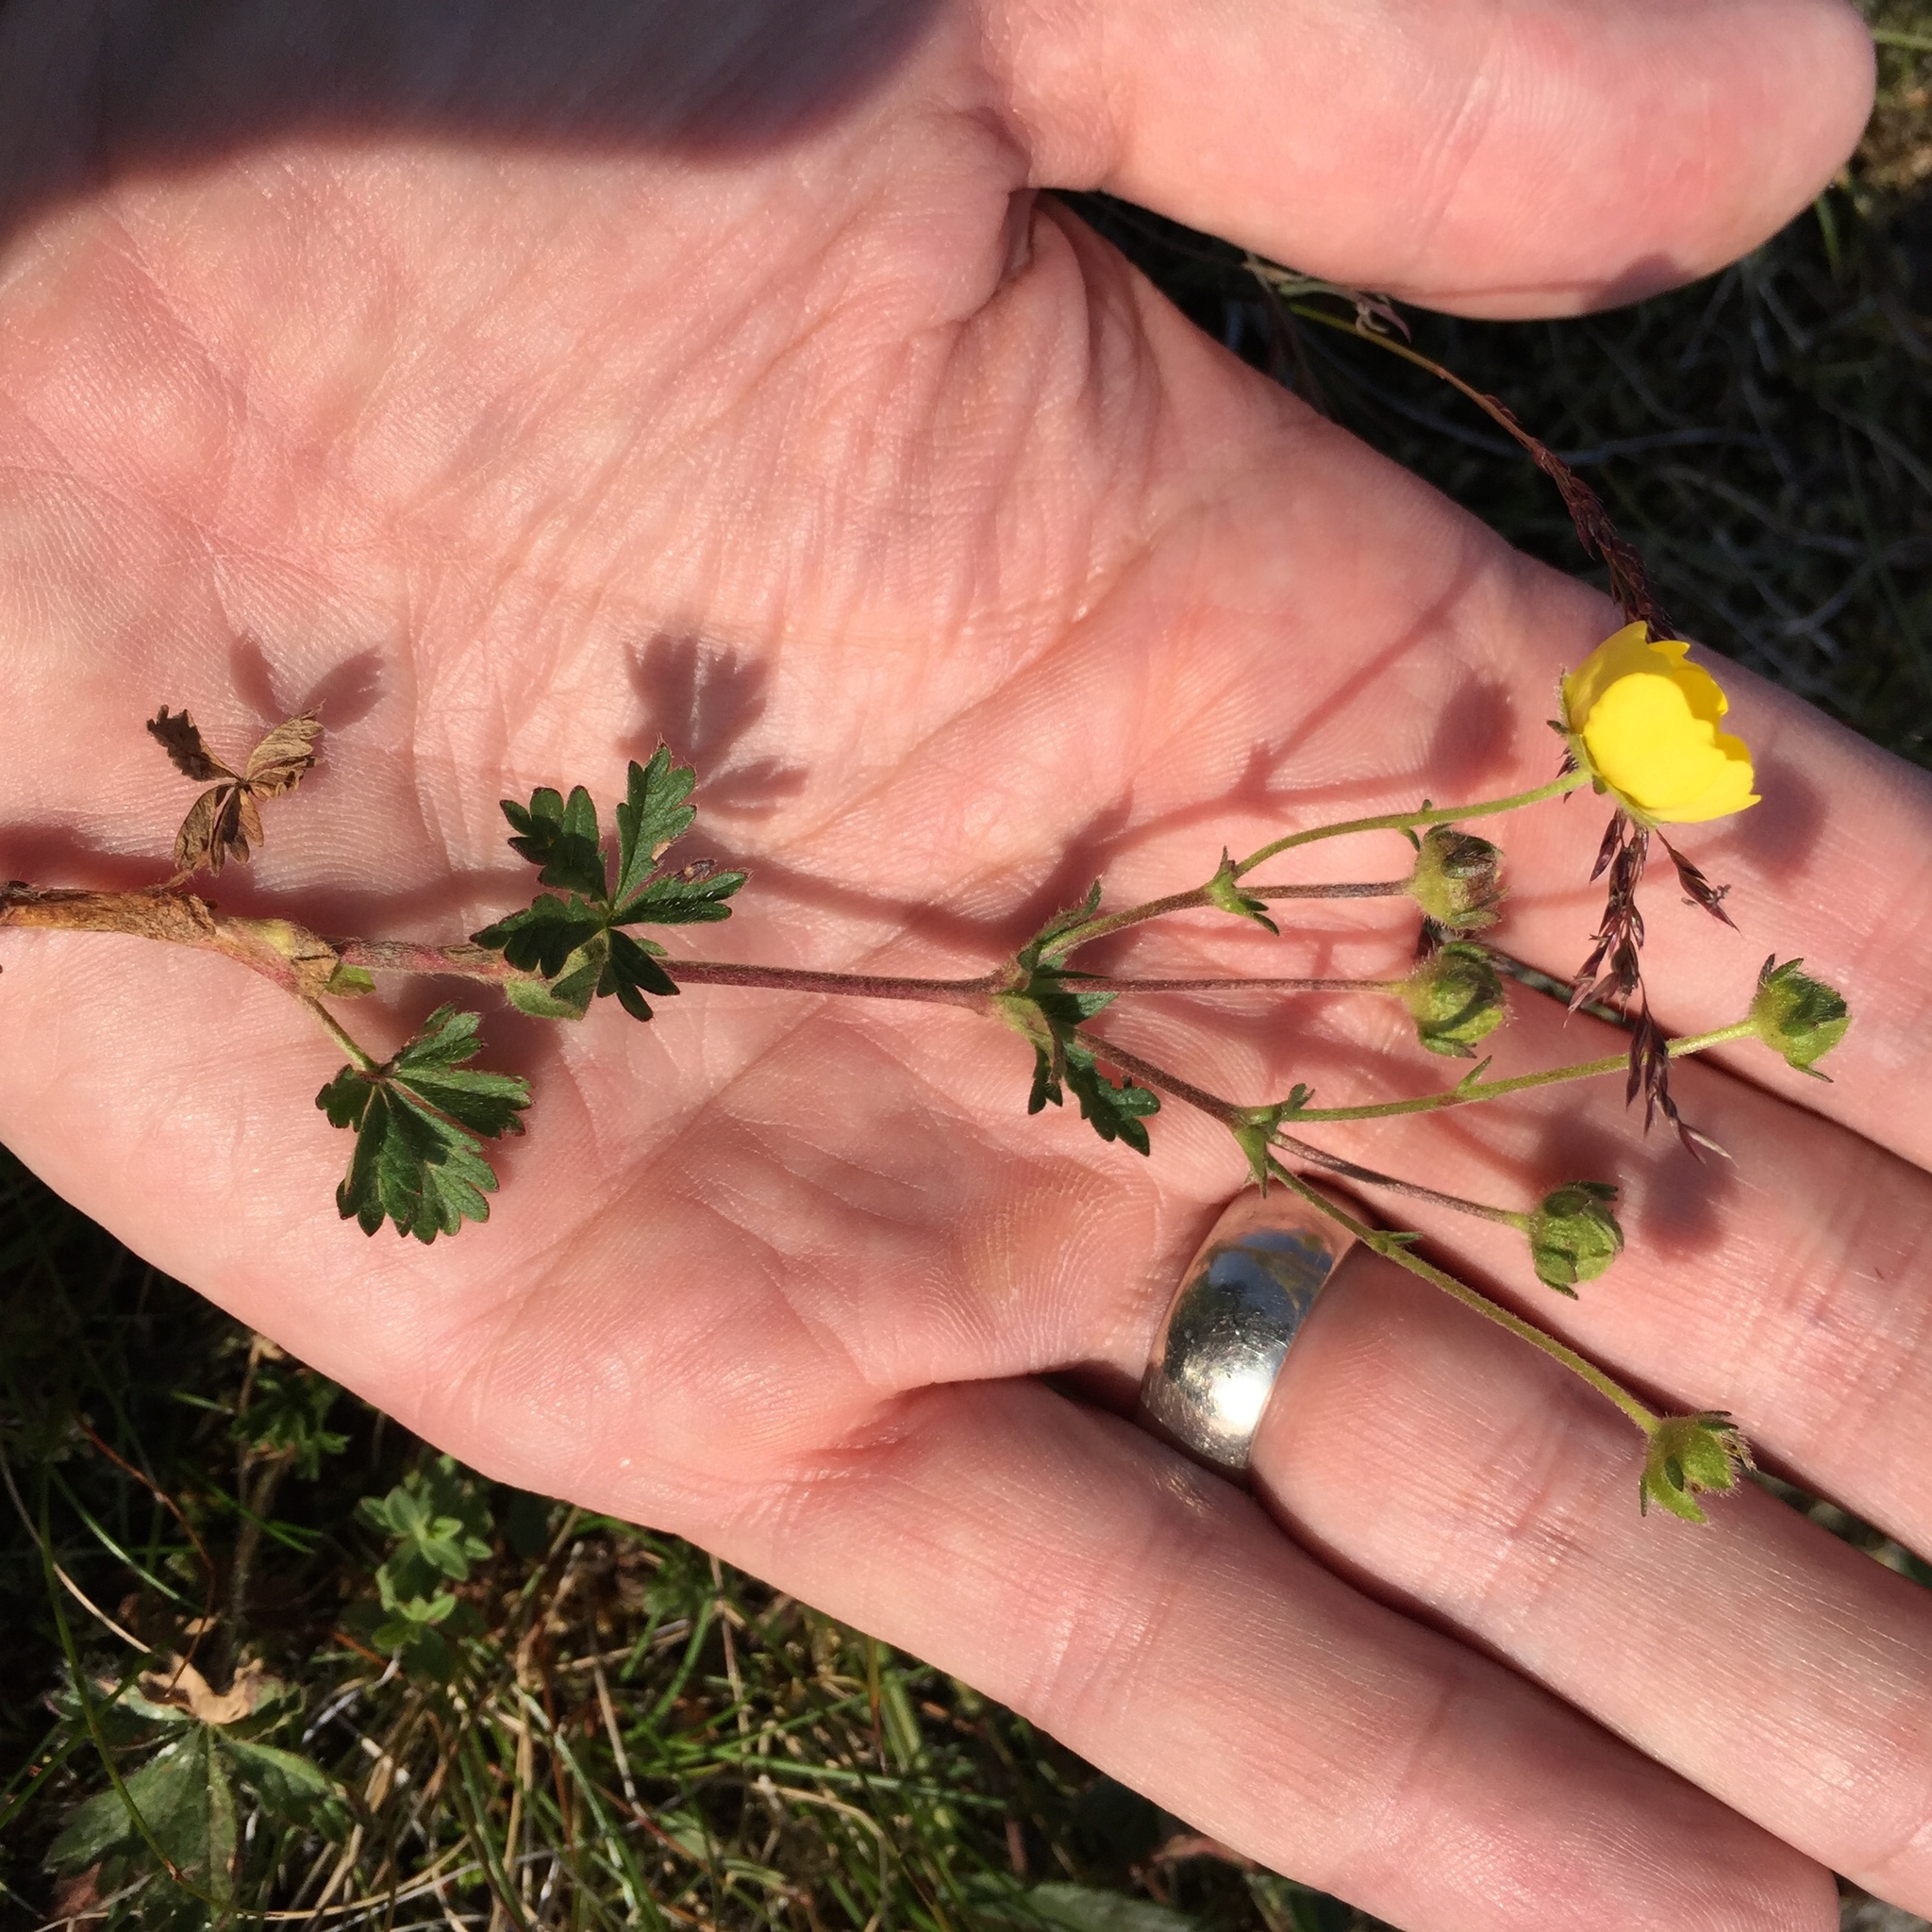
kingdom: Plantae
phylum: Tracheophyta
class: Magnoliopsida
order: Rosales
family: Rosaceae
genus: Potentilla
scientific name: Potentilla crantzii
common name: Alpine cinquefoil
